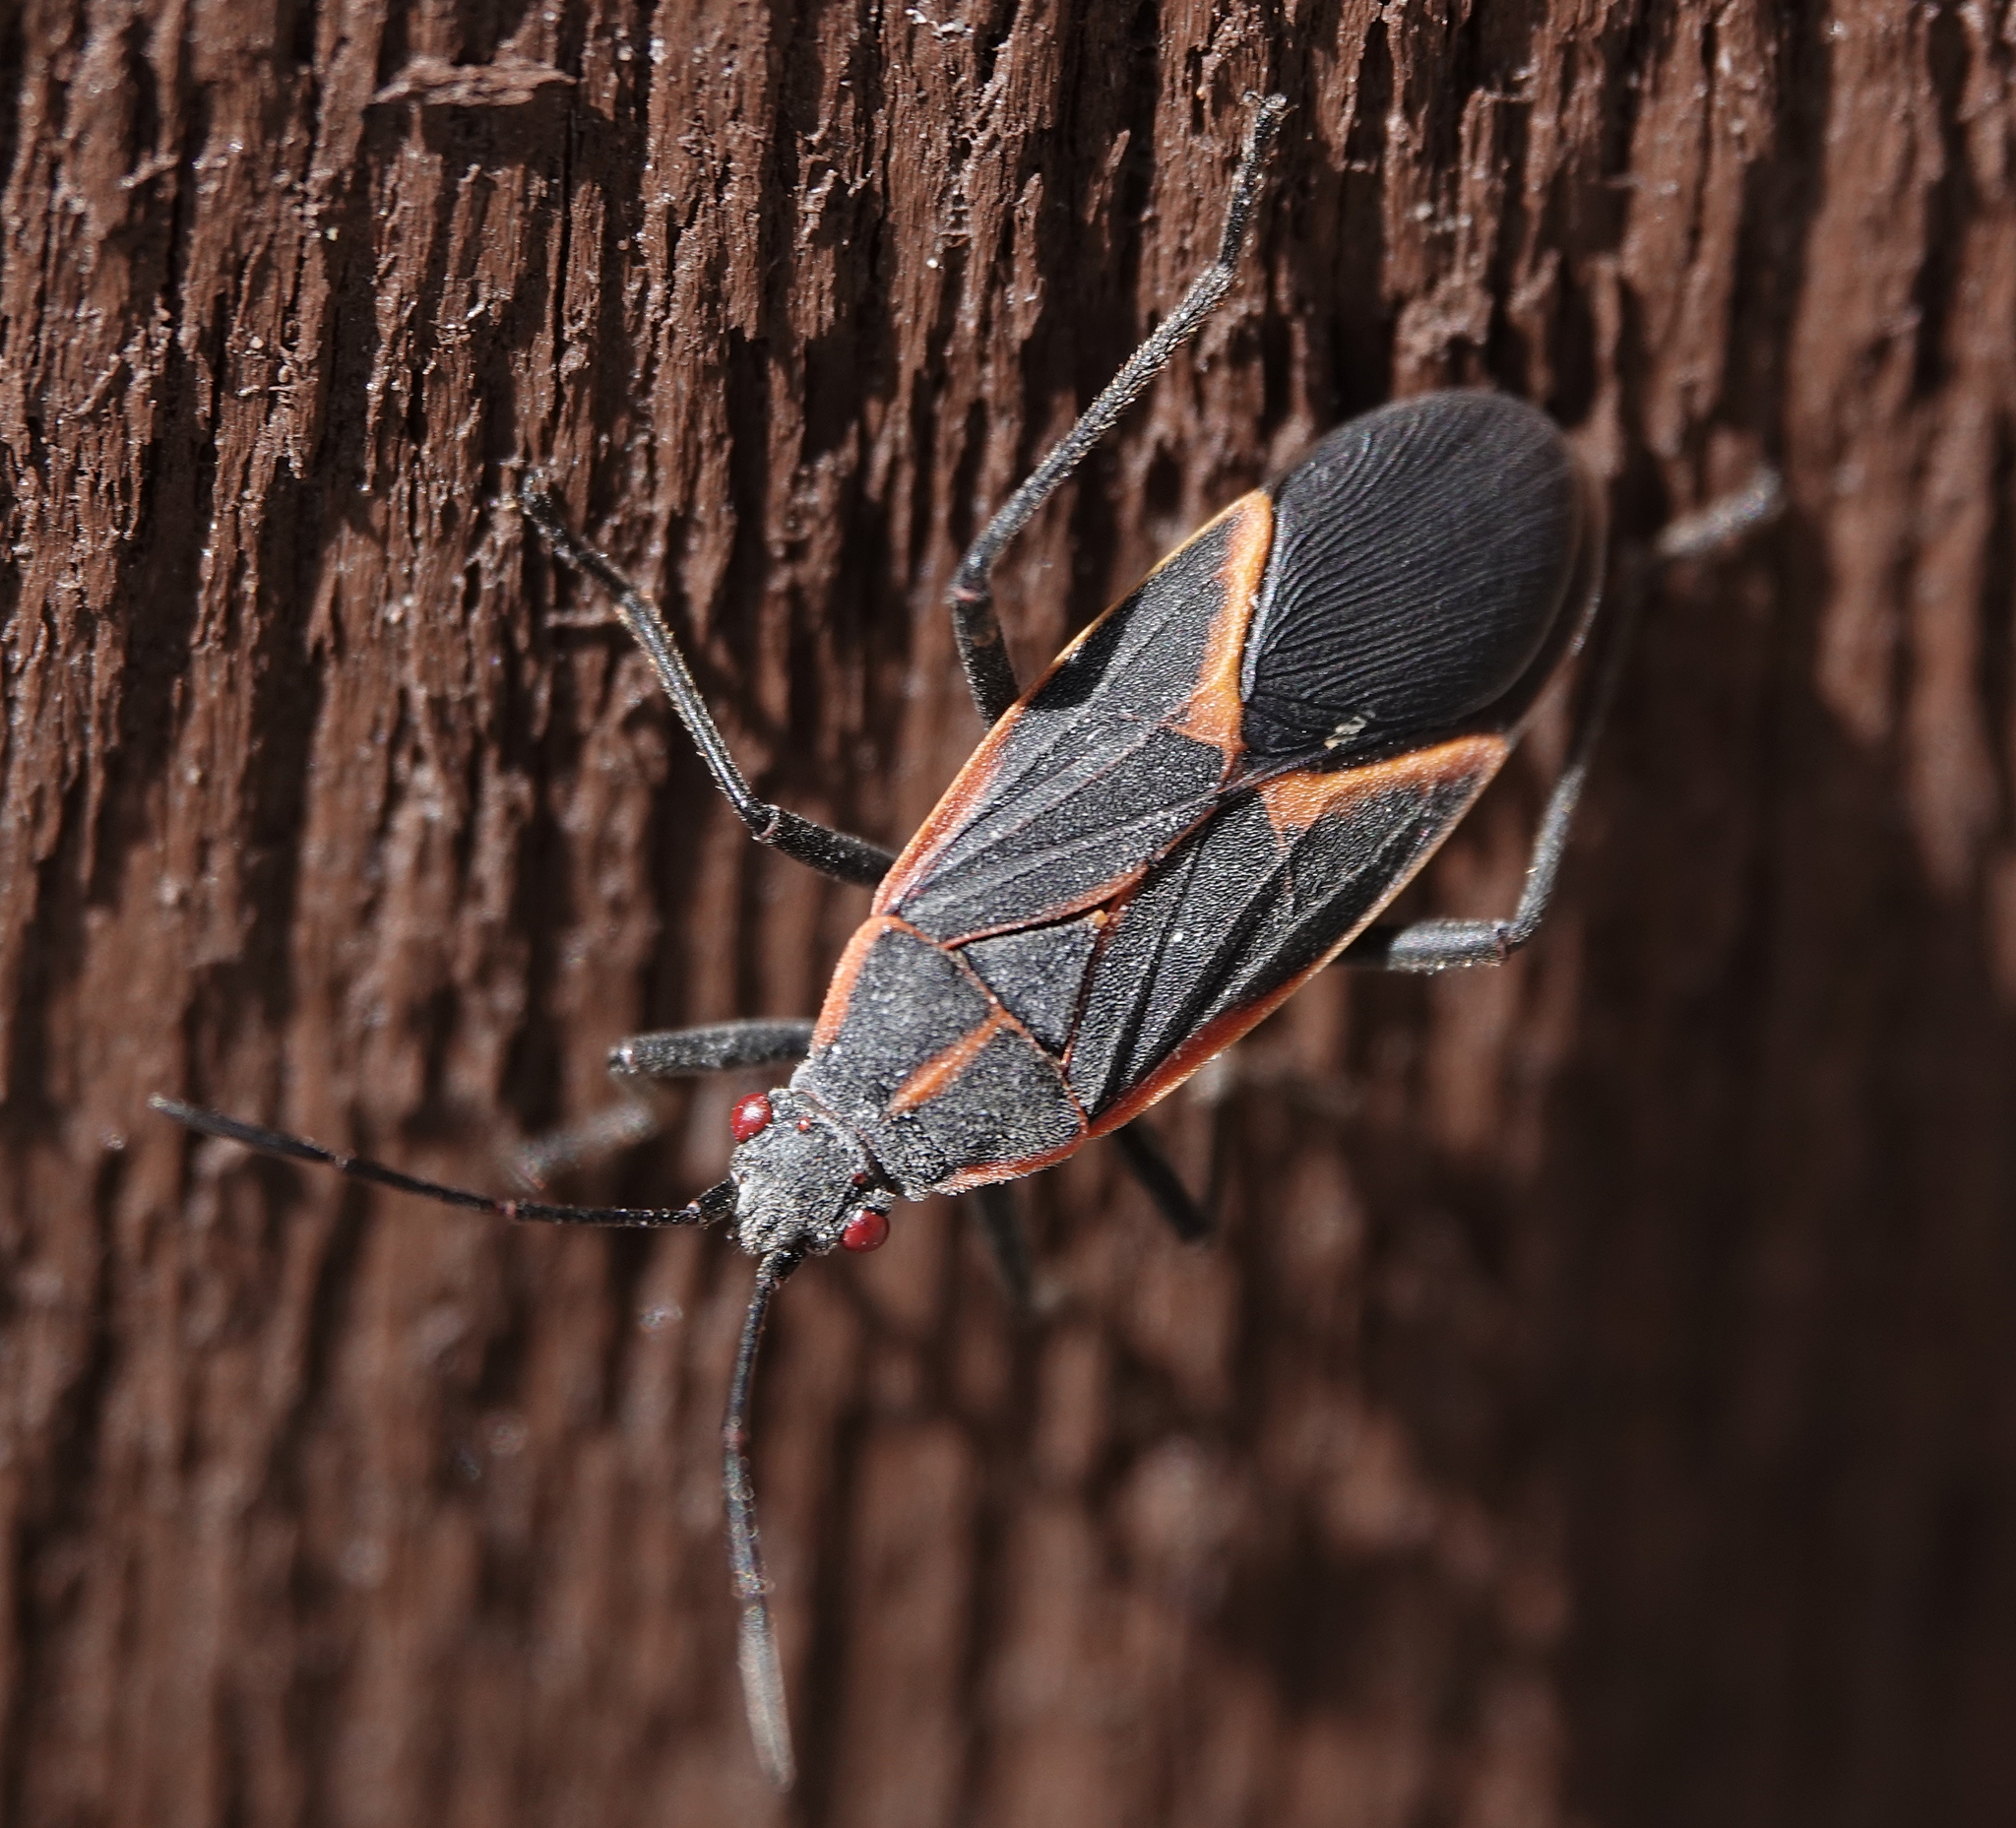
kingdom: Animalia
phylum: Arthropoda
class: Insecta
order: Hemiptera
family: Rhopalidae
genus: Boisea
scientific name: Boisea trivittata
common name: Boxelder bug
